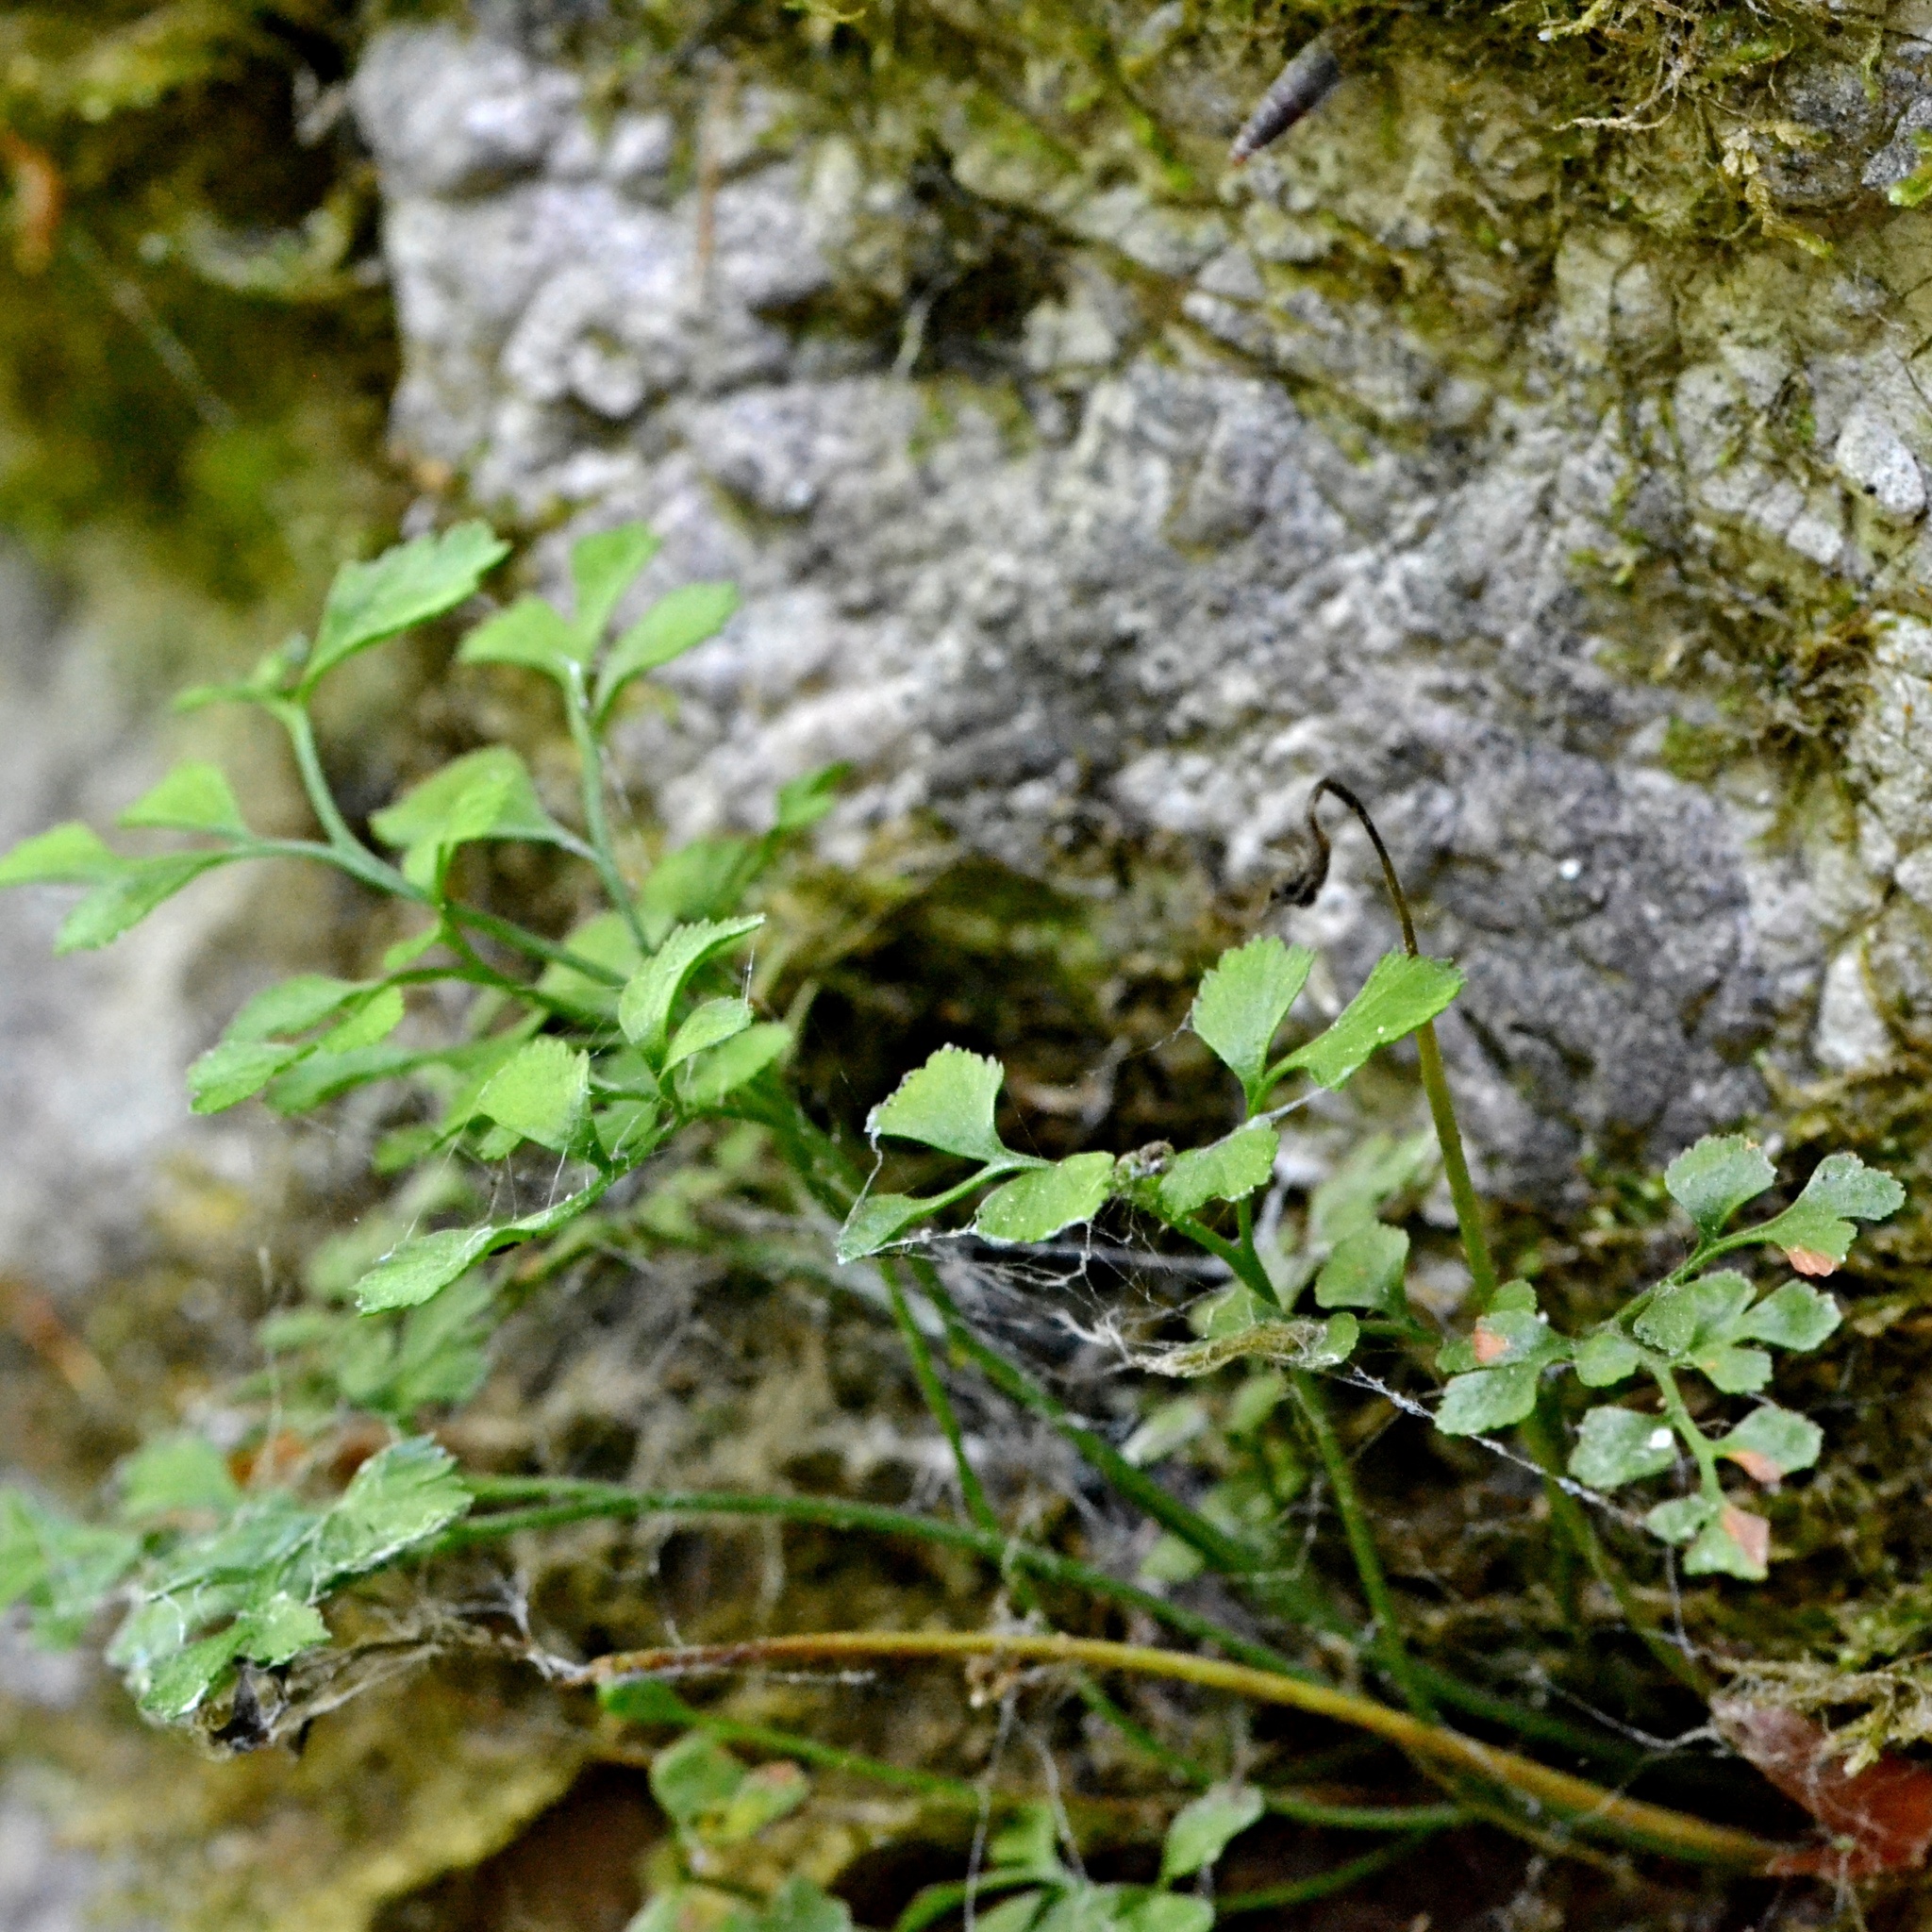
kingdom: Plantae
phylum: Tracheophyta
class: Polypodiopsida
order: Polypodiales
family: Aspleniaceae
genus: Asplenium
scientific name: Asplenium ruta-muraria
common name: Wall-rue
